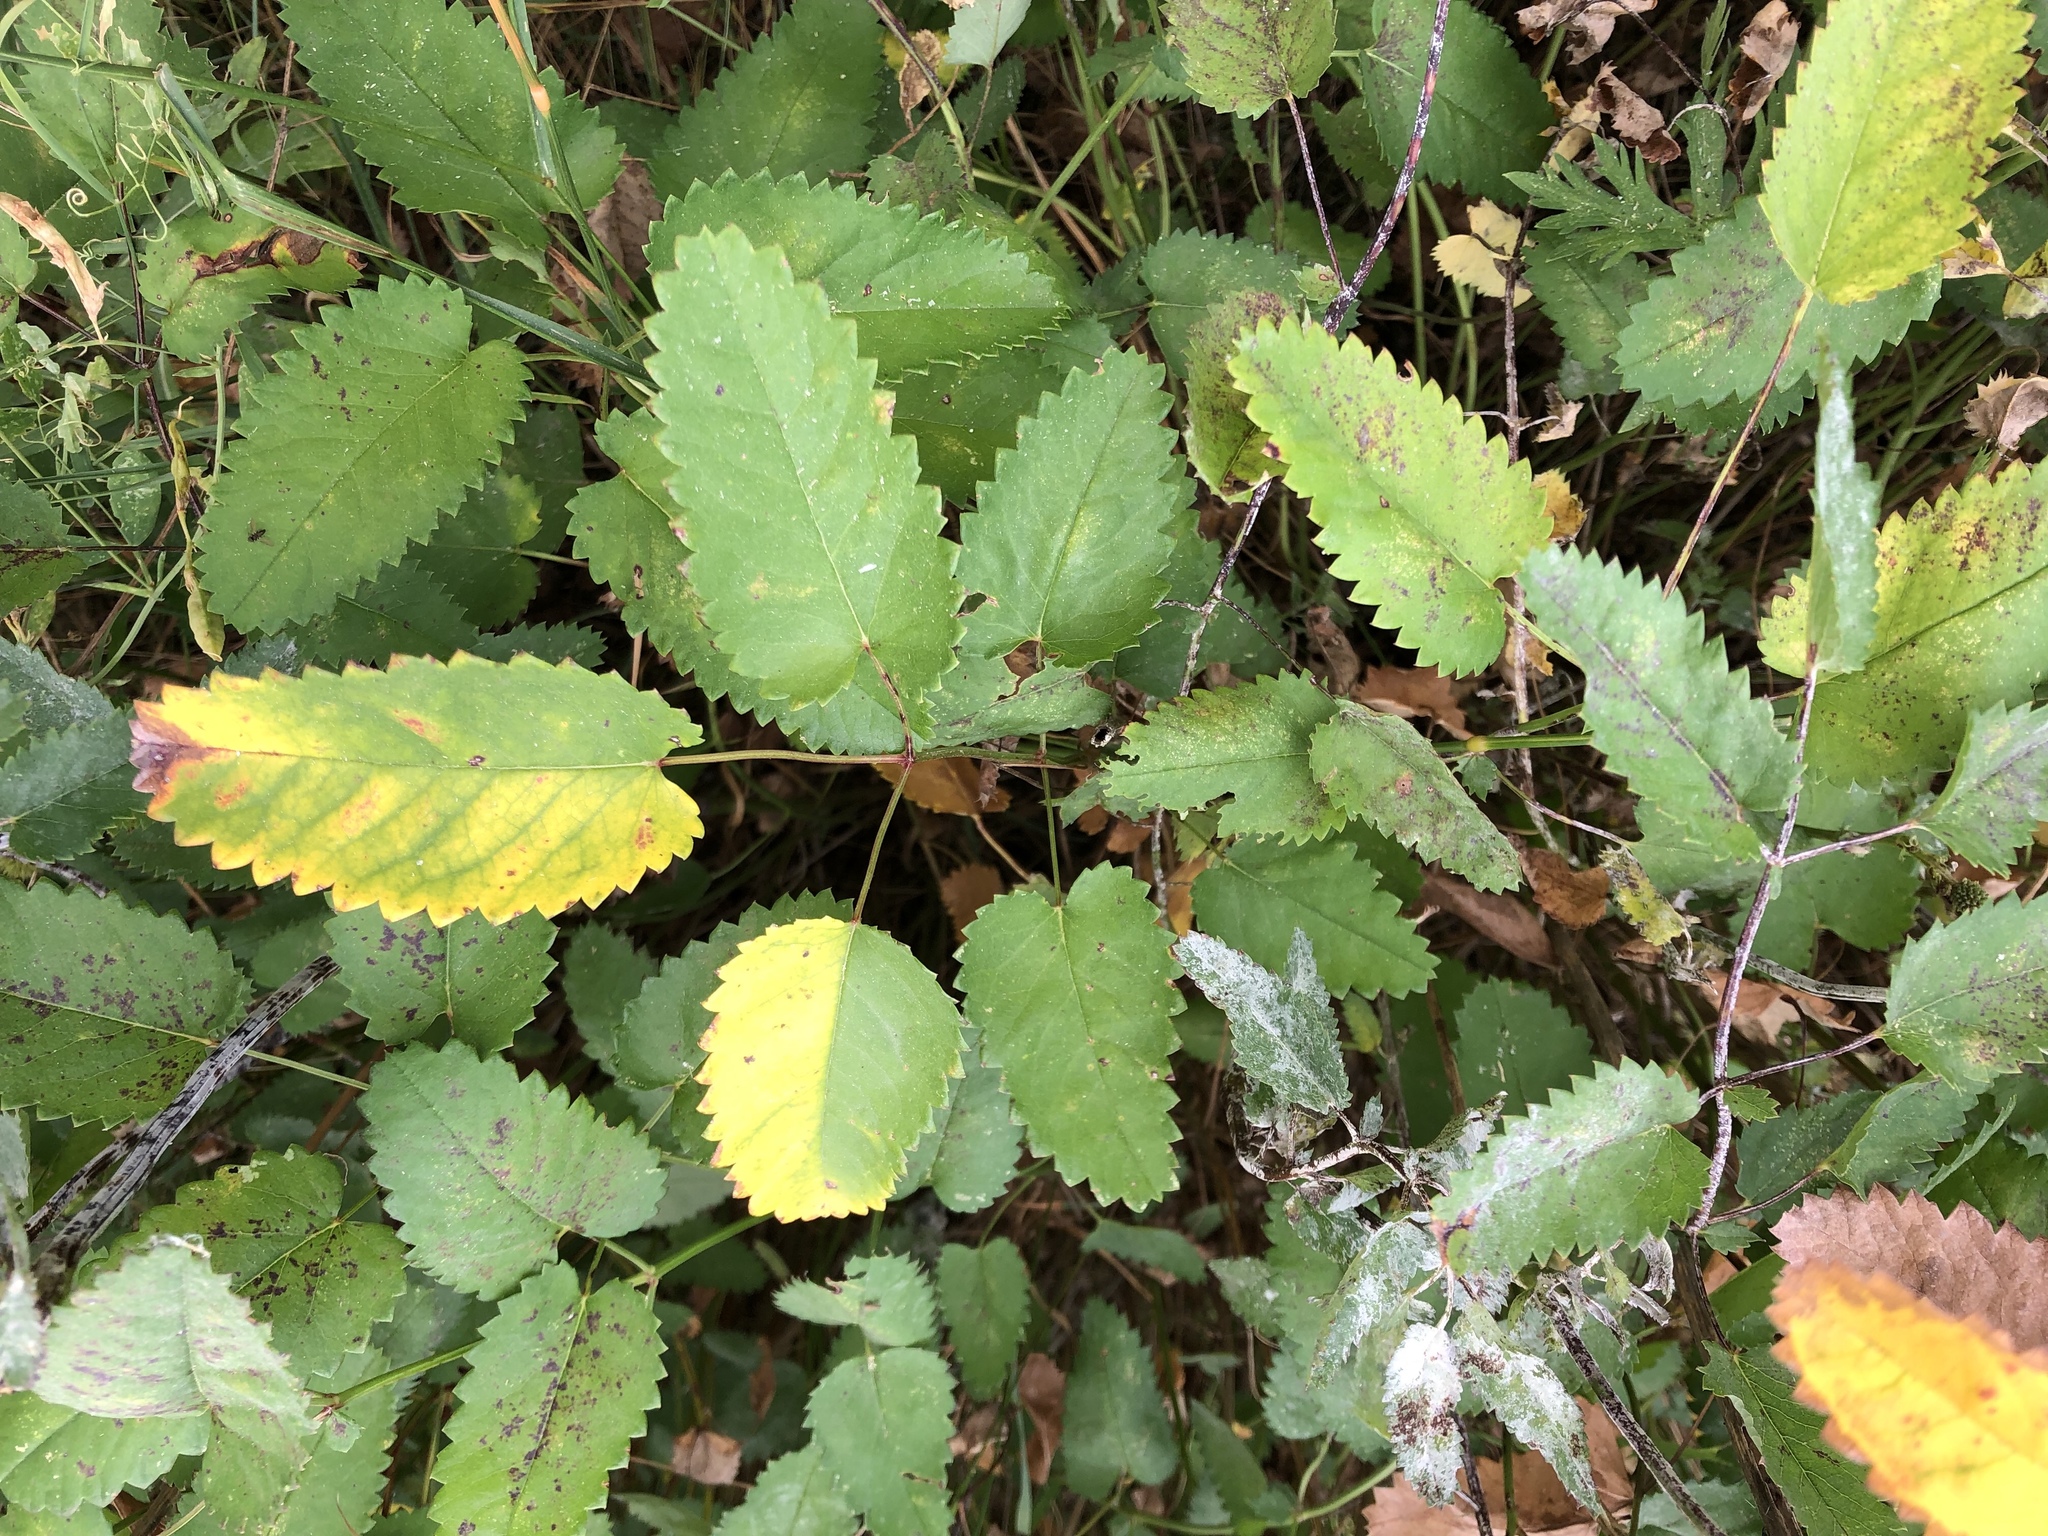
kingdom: Plantae
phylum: Tracheophyta
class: Magnoliopsida
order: Rosales
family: Rosaceae
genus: Sanguisorba
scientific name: Sanguisorba officinalis
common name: Great burnet
